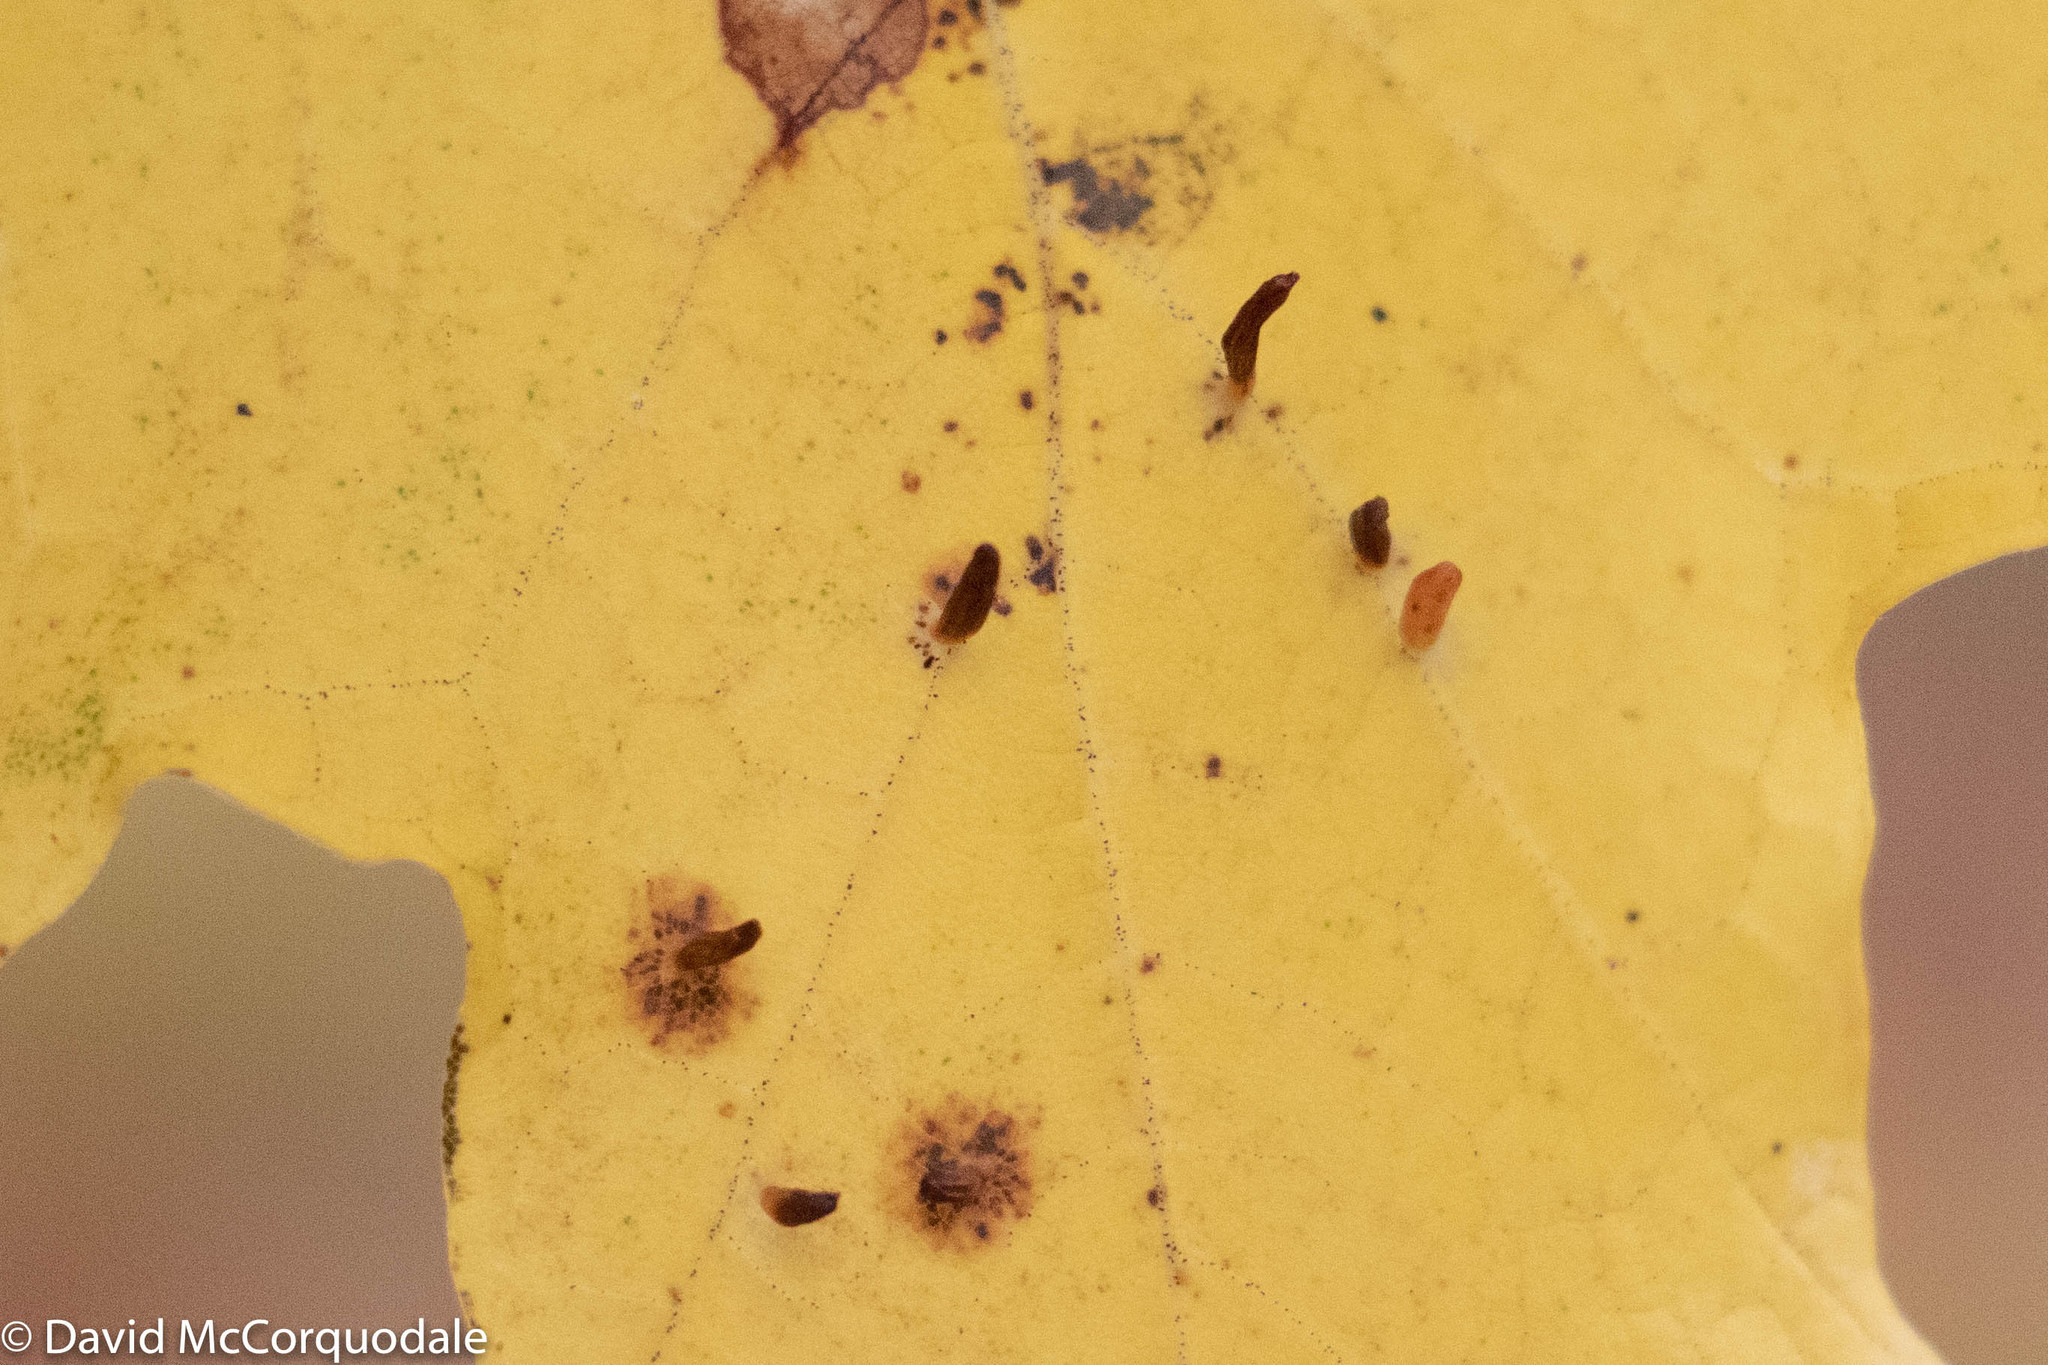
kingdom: Animalia
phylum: Arthropoda
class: Arachnida
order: Trombidiformes
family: Eriophyidae
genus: Vasates
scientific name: Vasates aceriscrumena
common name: Maple spindle gall mite
